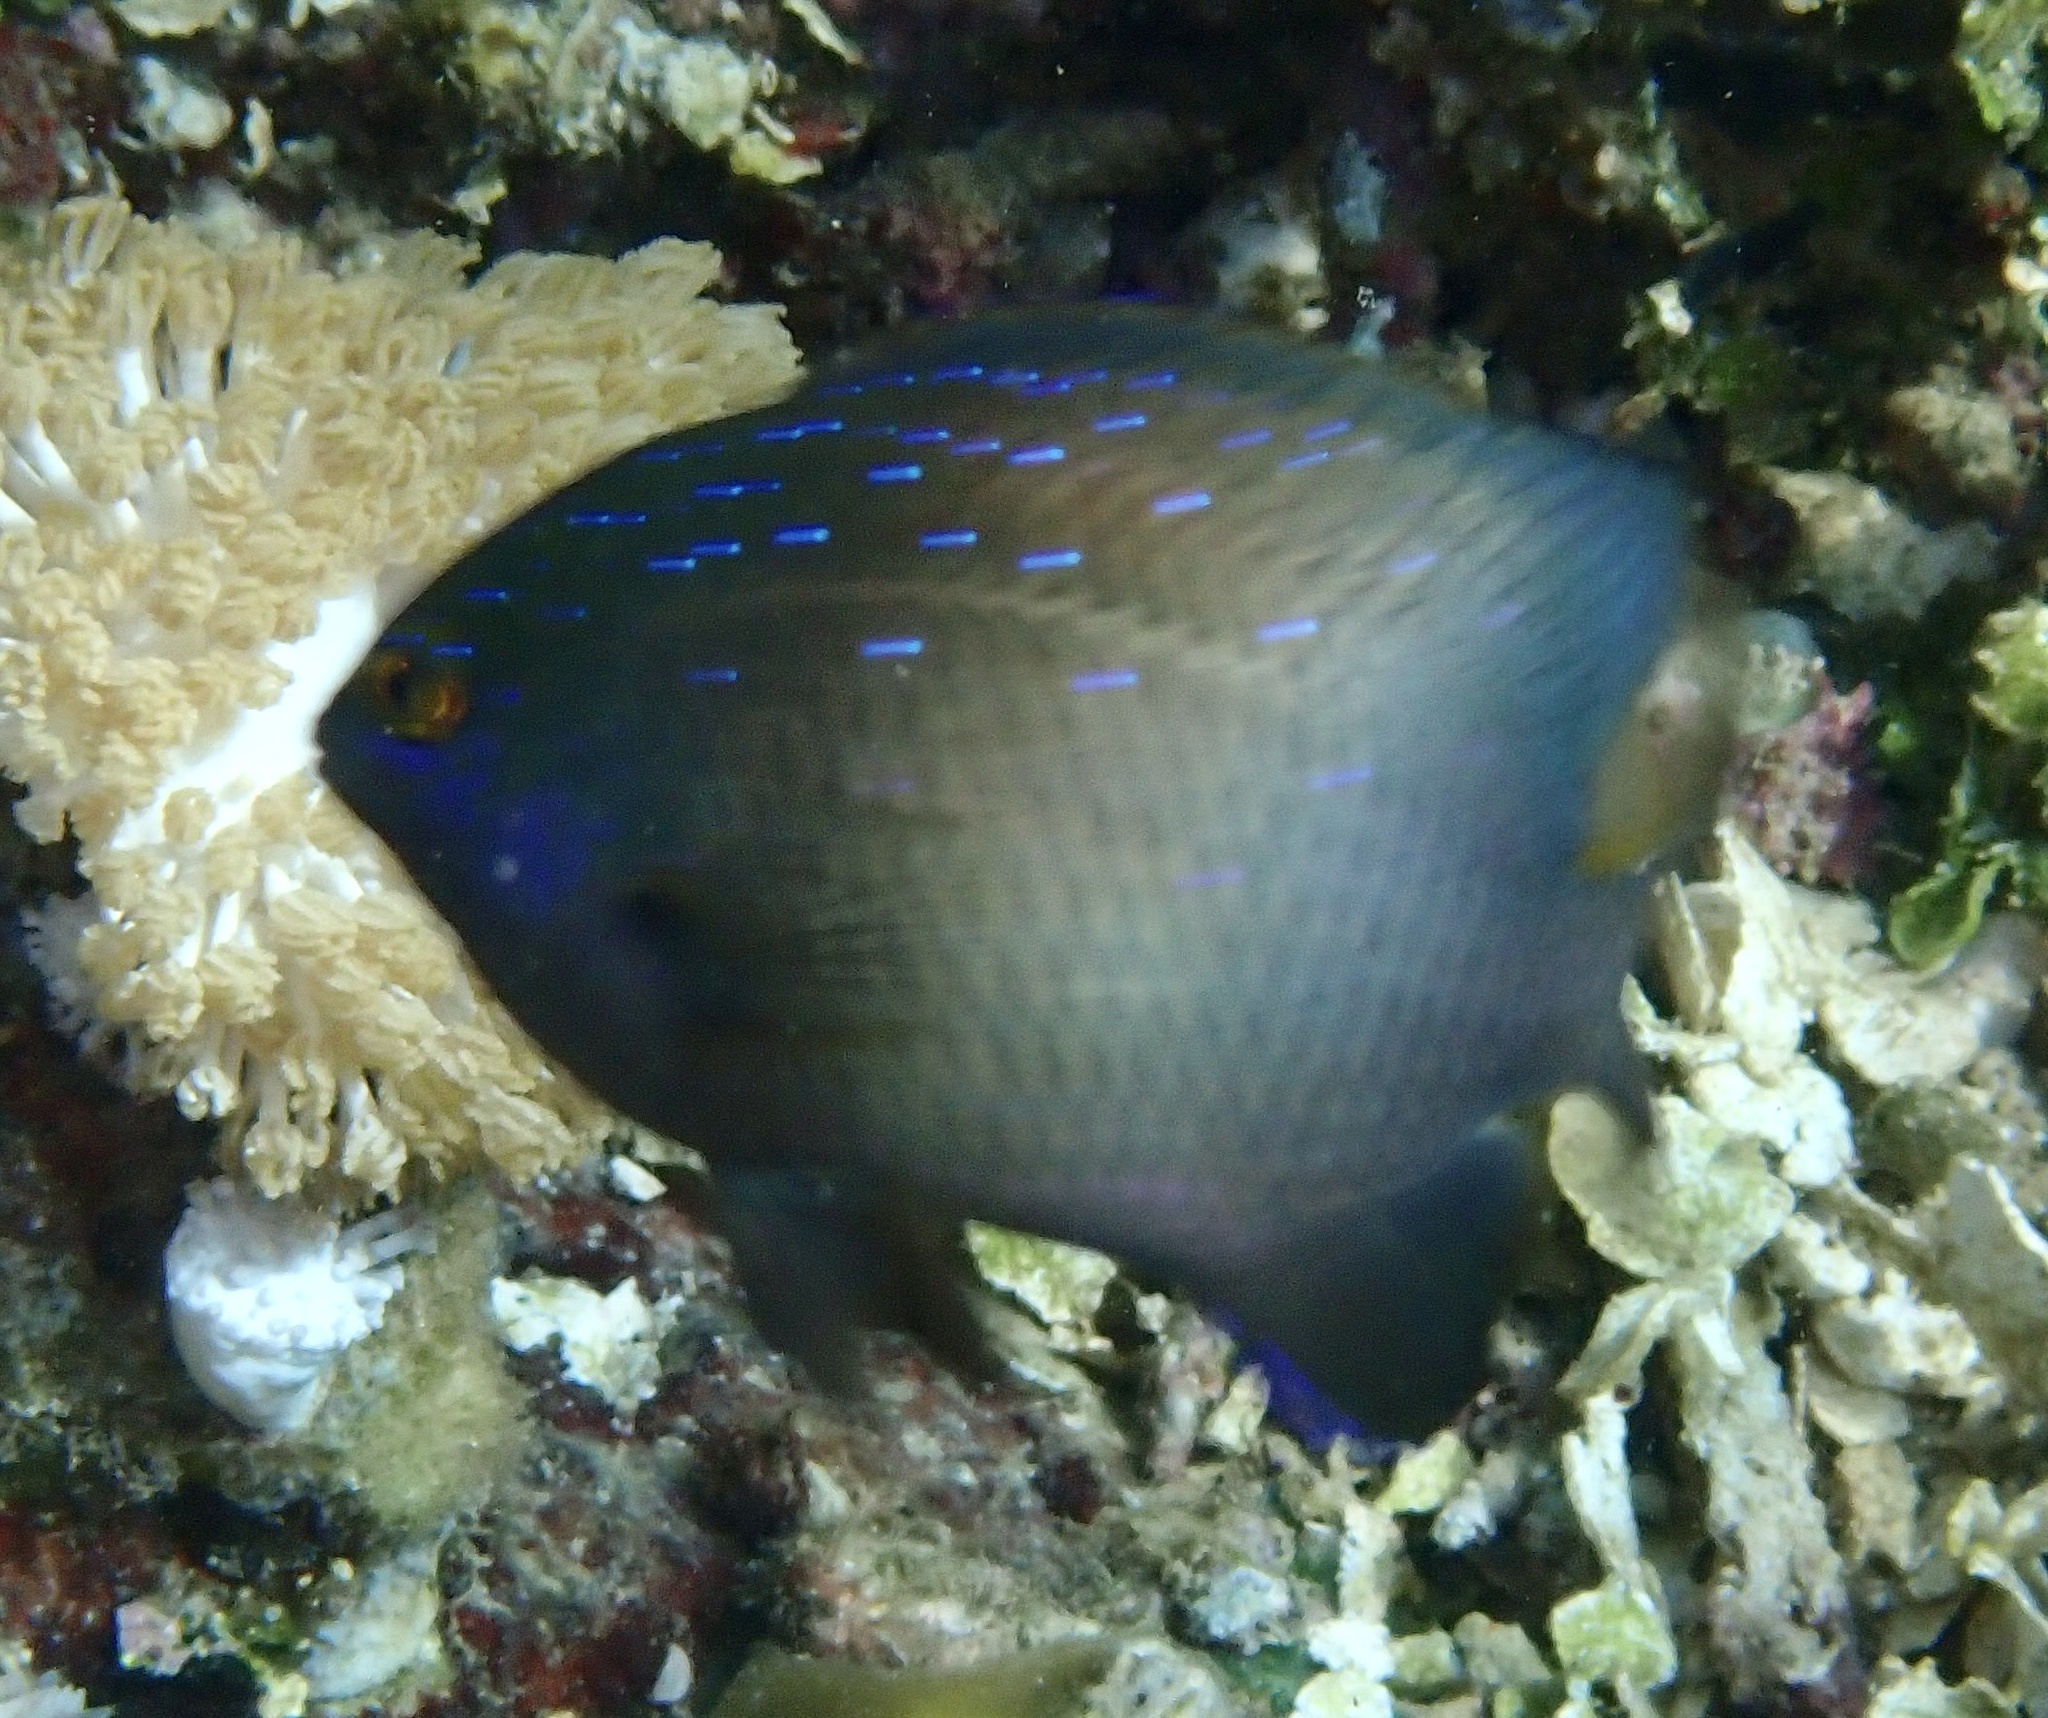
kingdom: Animalia
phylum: Chordata
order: Perciformes
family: Pomacentridae
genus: Plectroglyphidodon
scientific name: Plectroglyphidodon lacrymatus
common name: Jewel damsel
